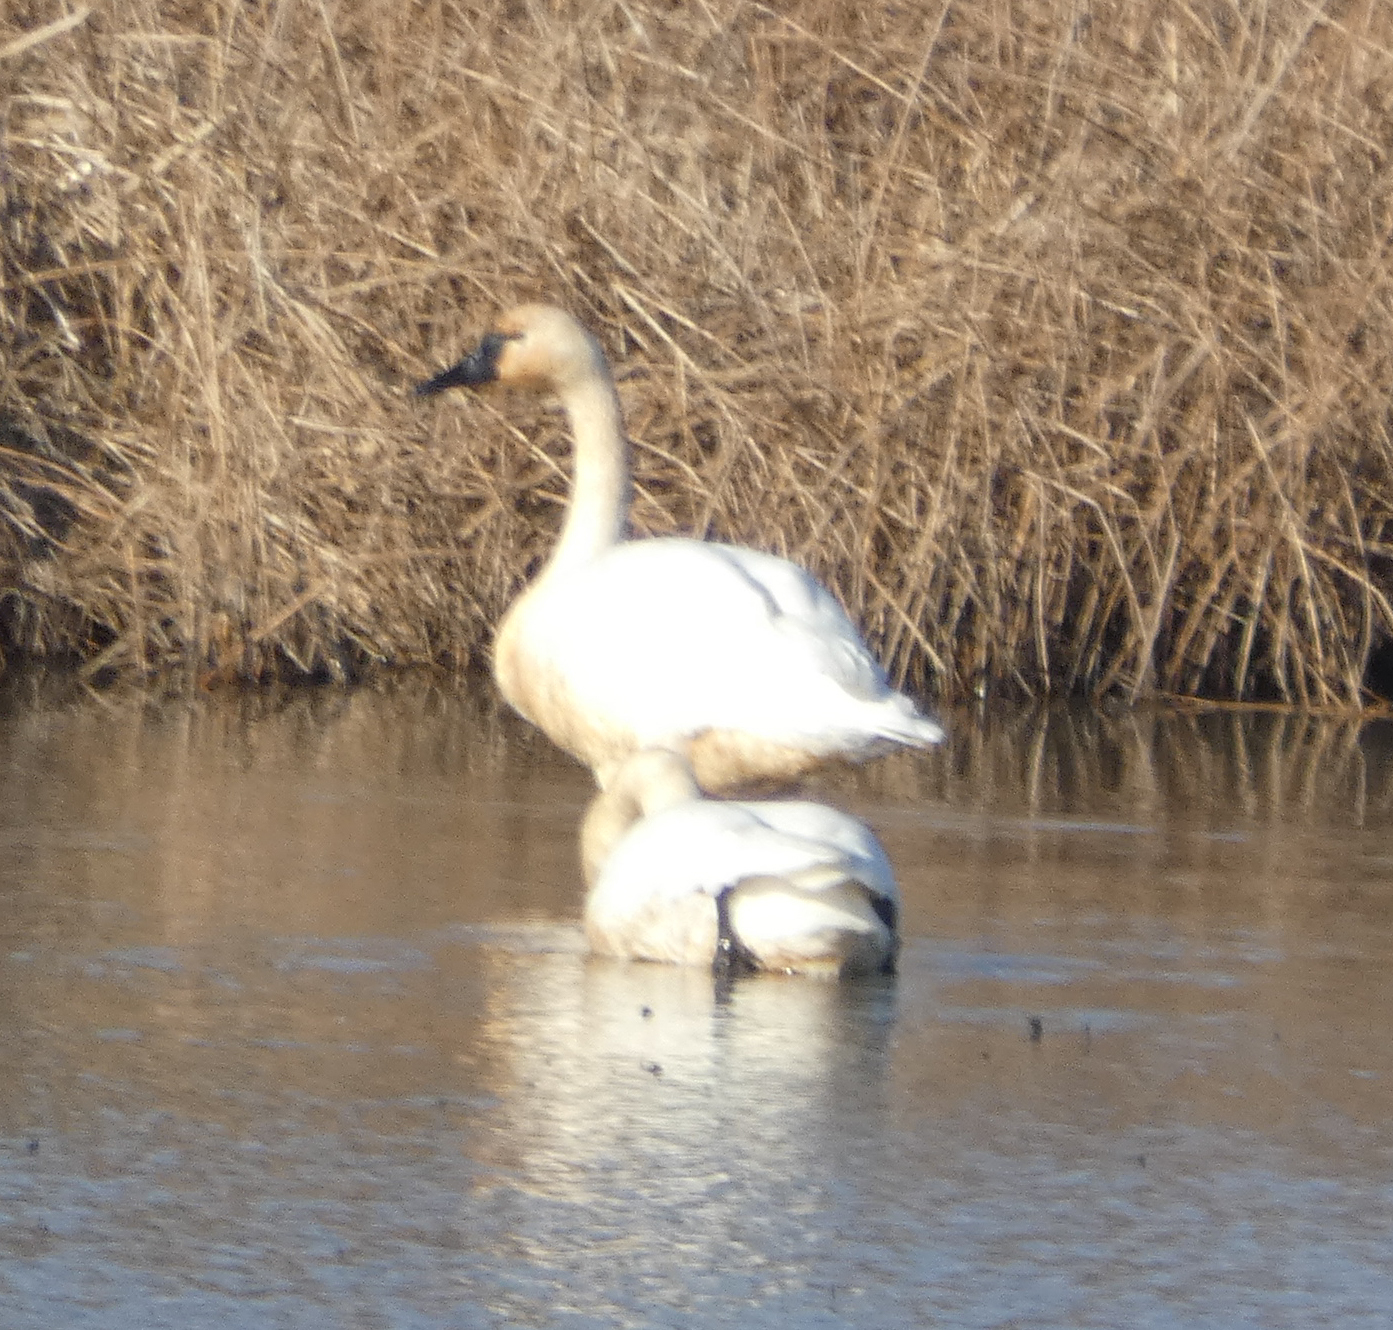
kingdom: Animalia
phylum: Chordata
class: Aves
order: Anseriformes
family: Anatidae
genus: Cygnus
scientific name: Cygnus columbianus
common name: Tundra swan
